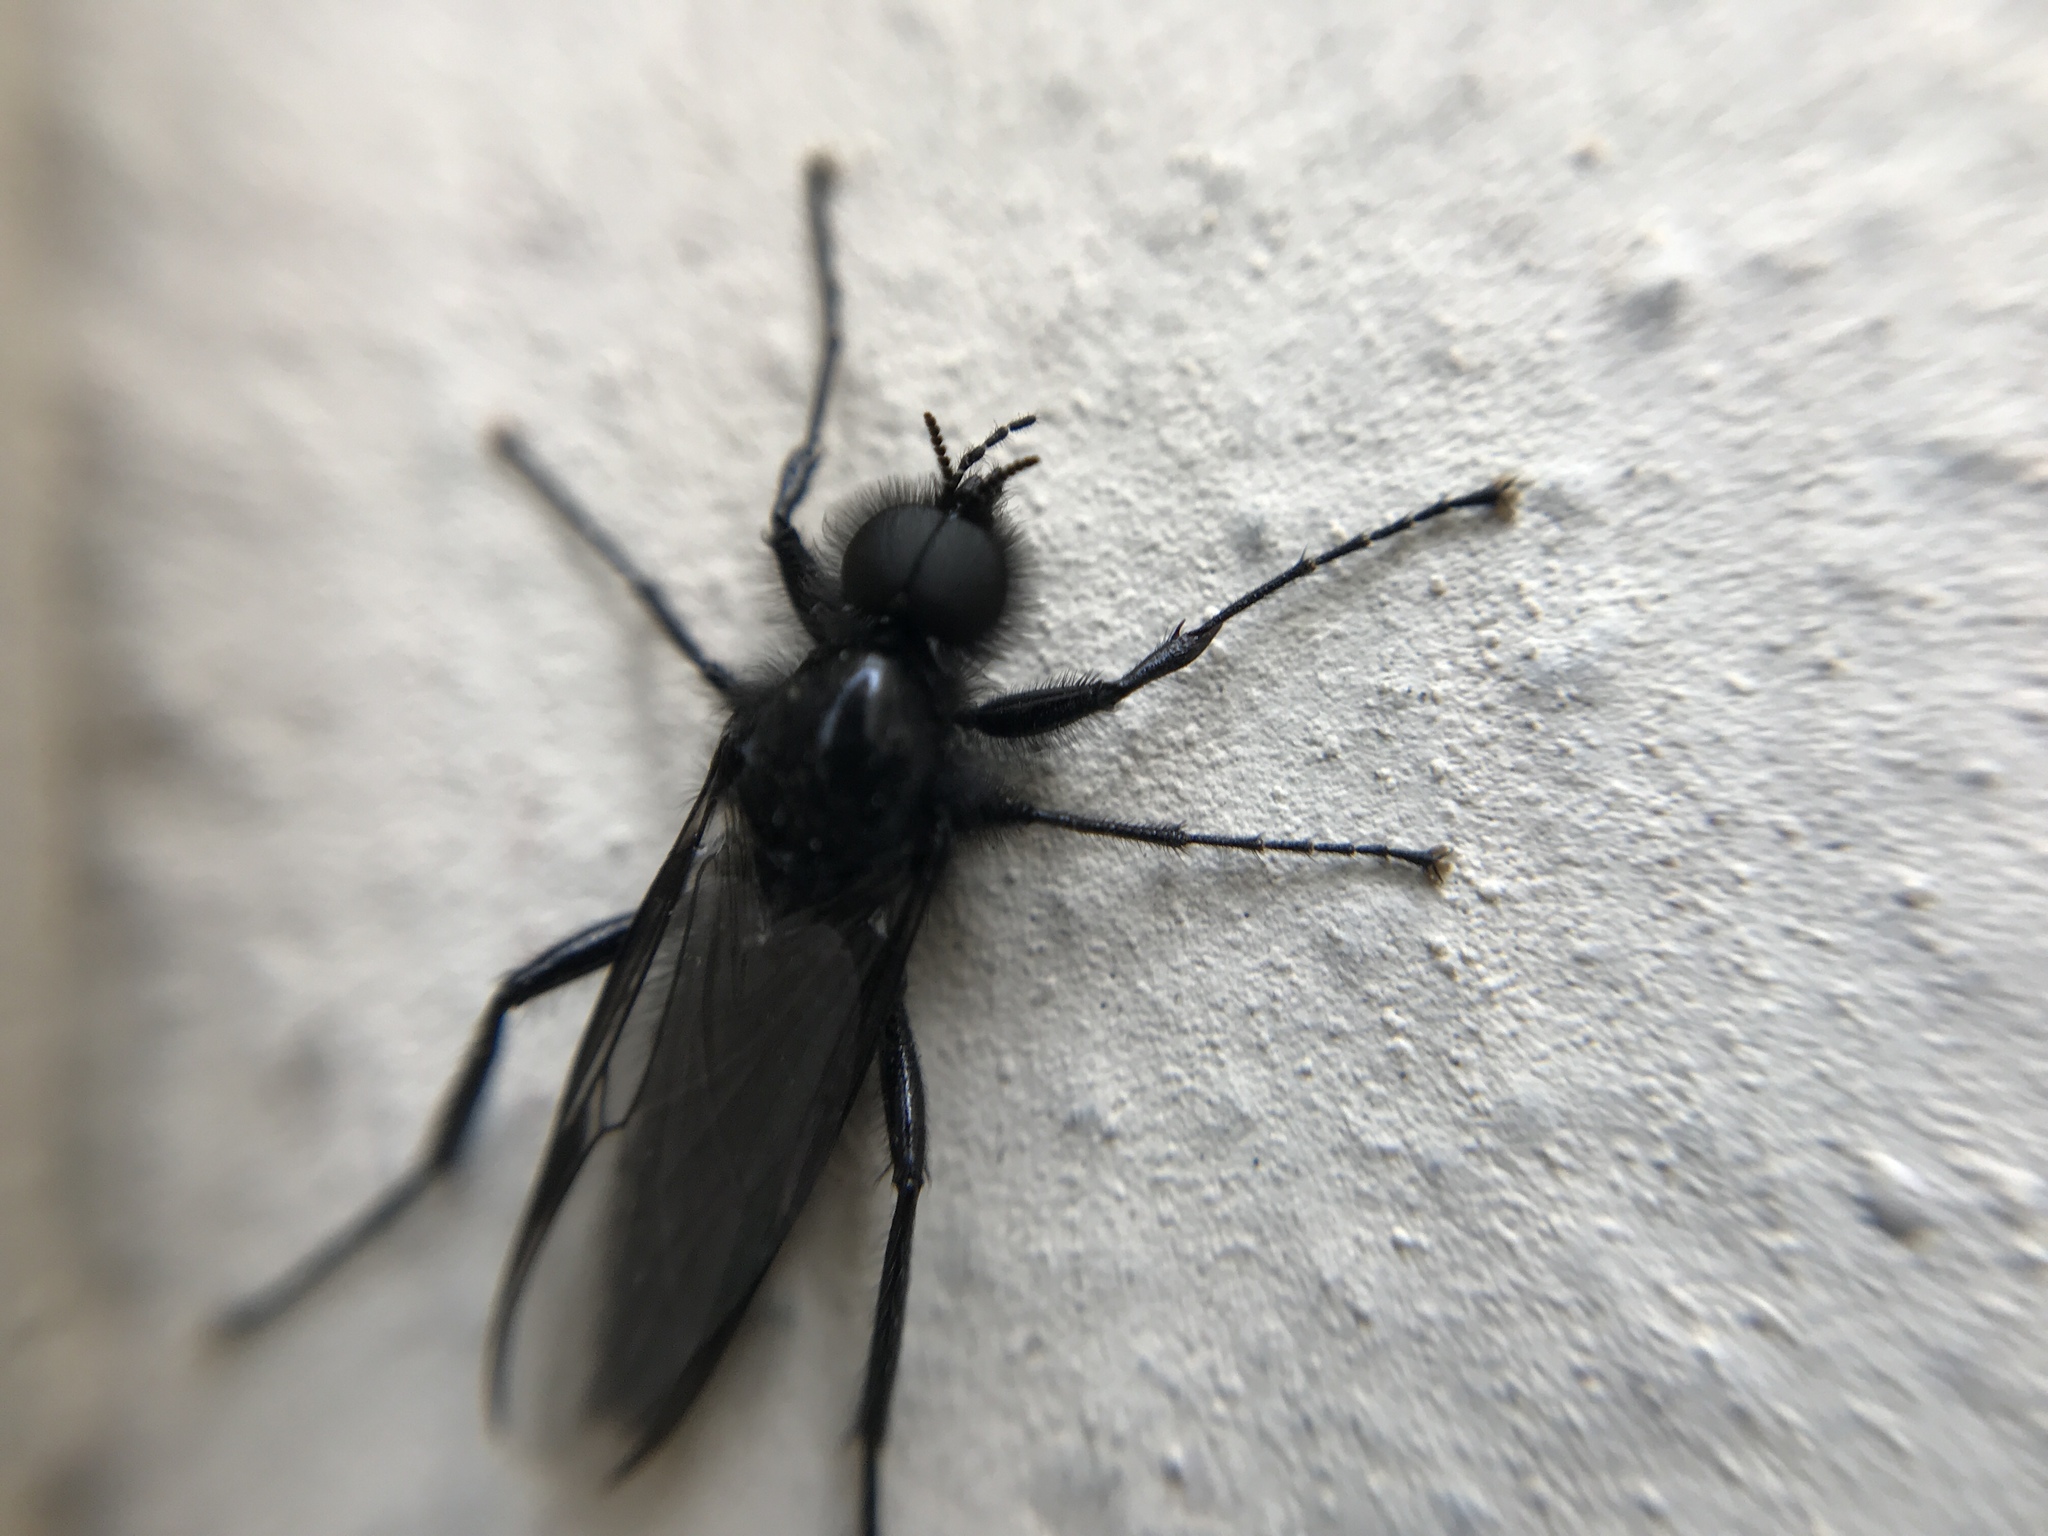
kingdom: Animalia
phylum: Arthropoda
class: Insecta
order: Diptera
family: Bibionidae
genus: Bibio
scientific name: Bibio marci
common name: St marks fly
